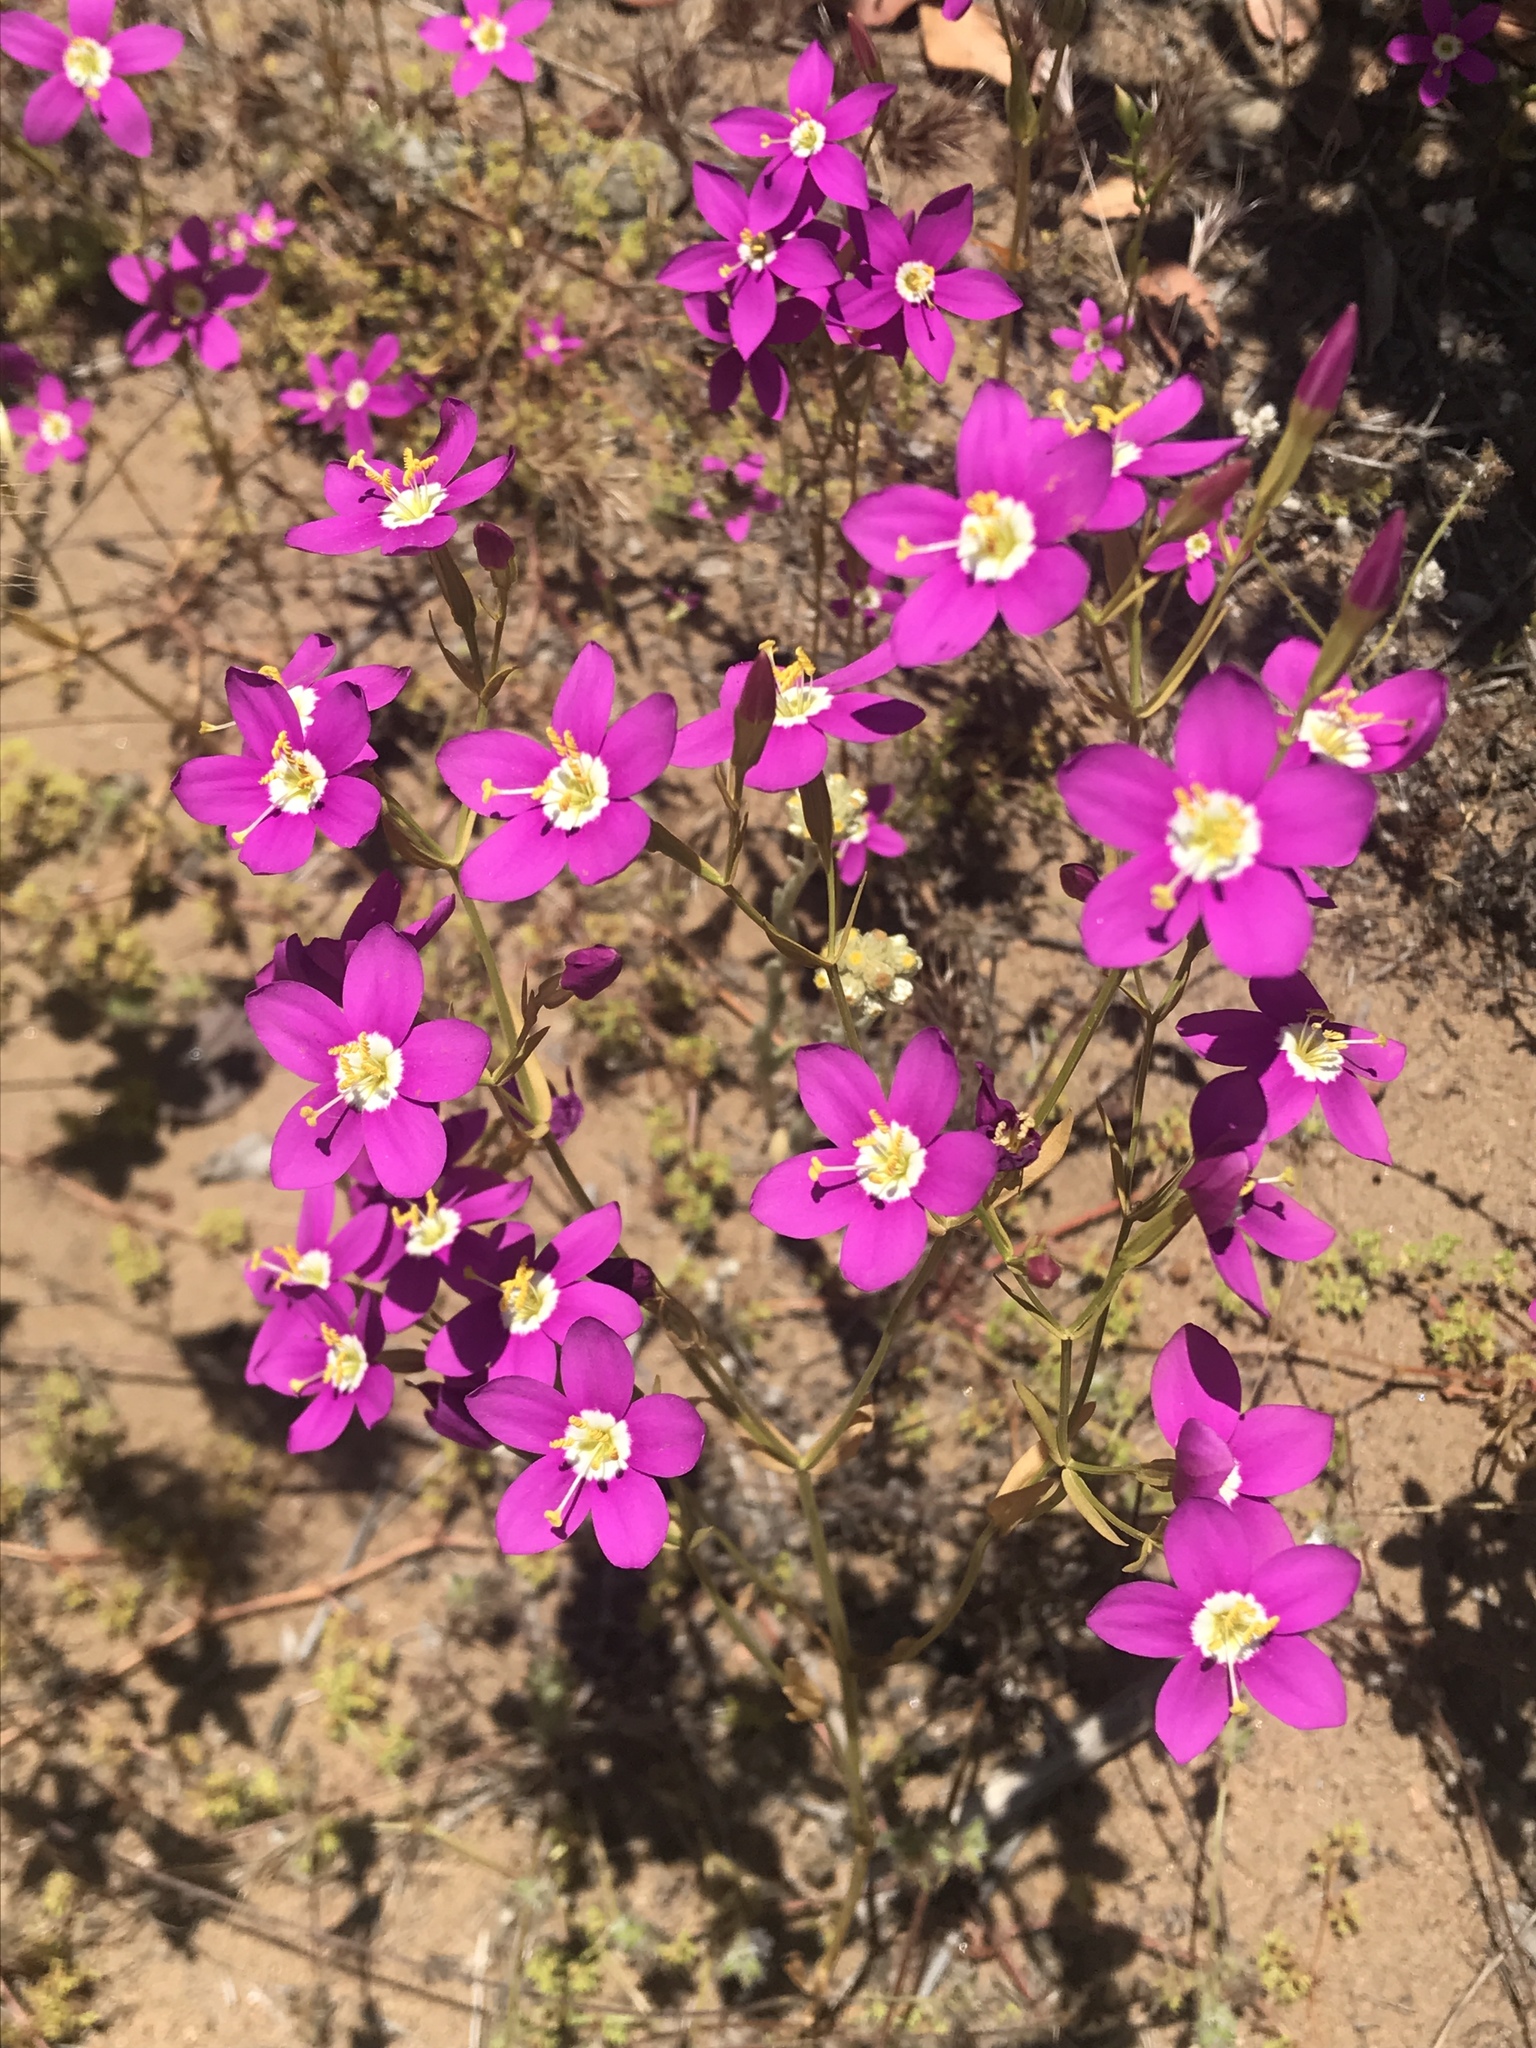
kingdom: Plantae
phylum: Tracheophyta
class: Magnoliopsida
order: Gentianales
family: Gentianaceae
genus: Zeltnera
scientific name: Zeltnera venusta
